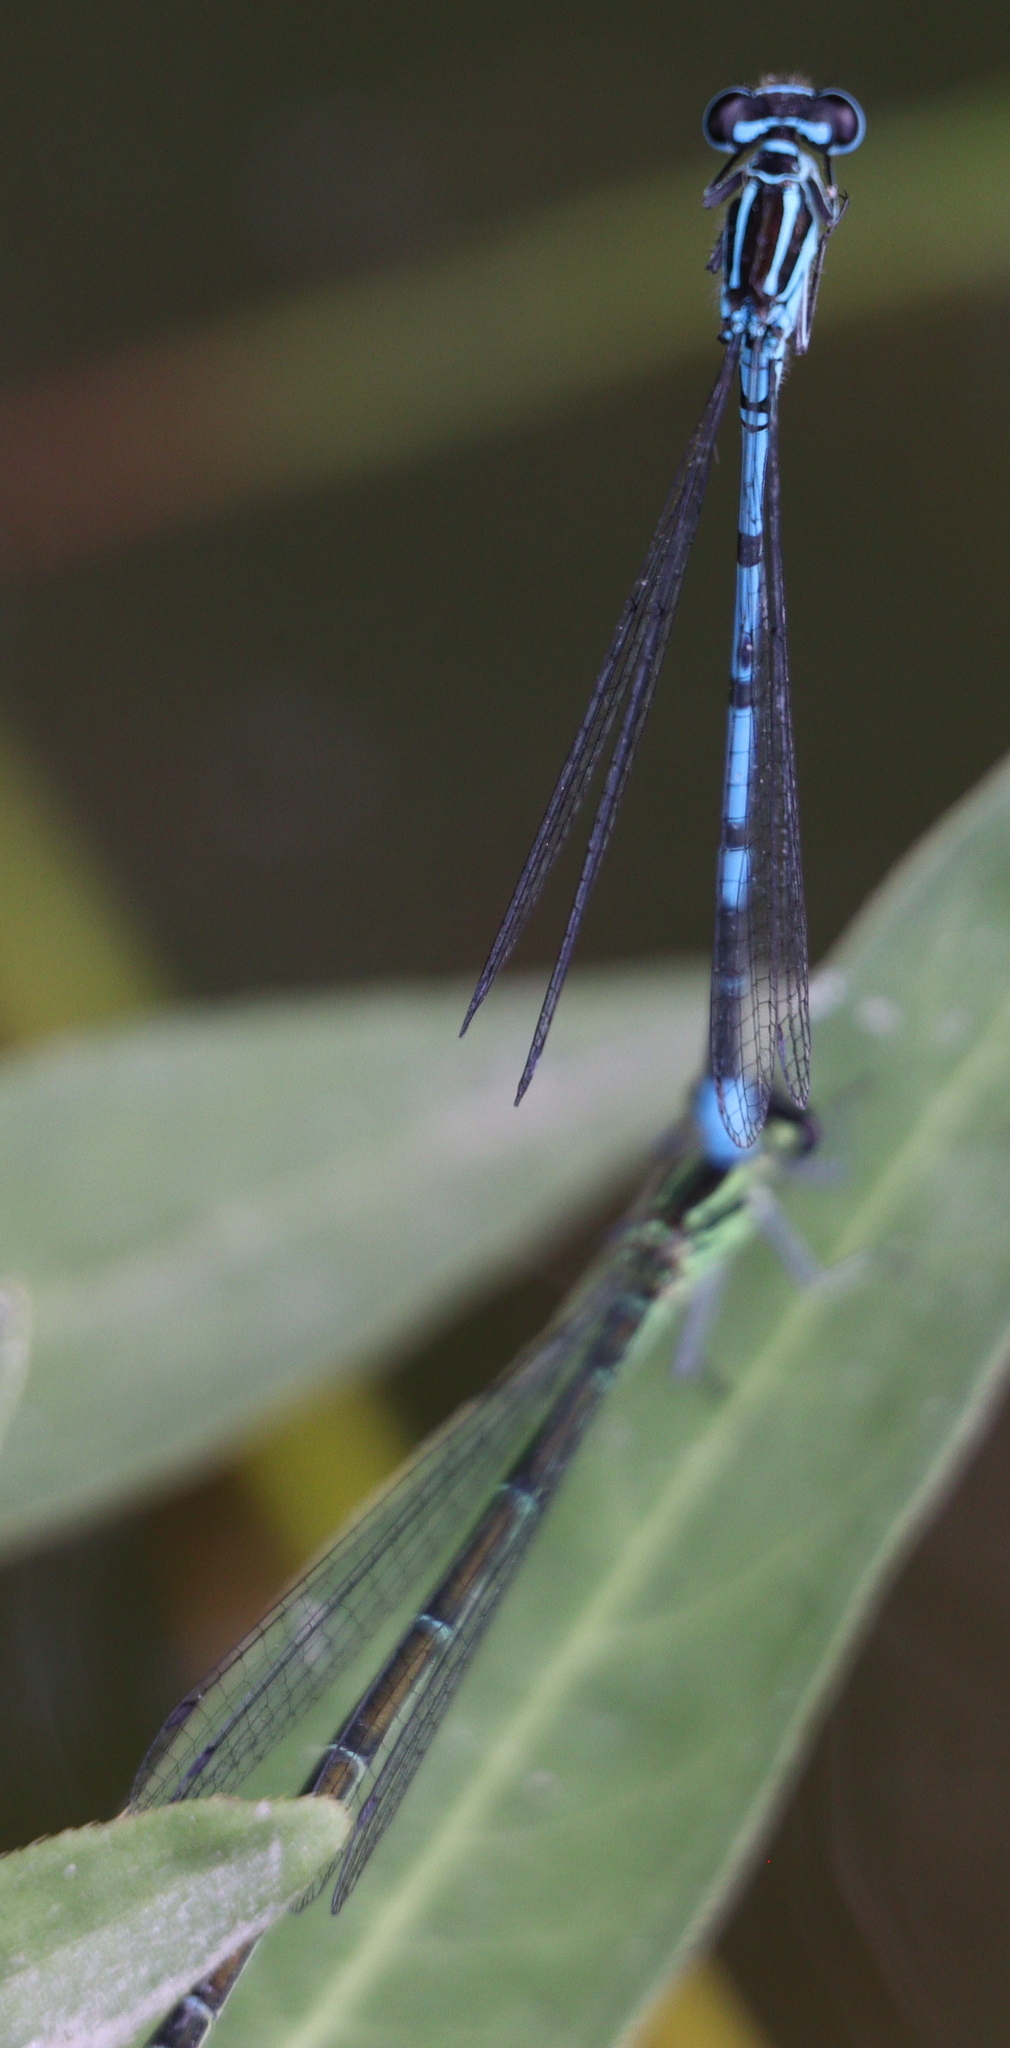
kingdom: Animalia
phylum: Arthropoda
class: Insecta
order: Odonata
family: Coenagrionidae
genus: Coenagrion
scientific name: Coenagrion puella
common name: Azure damselfly
